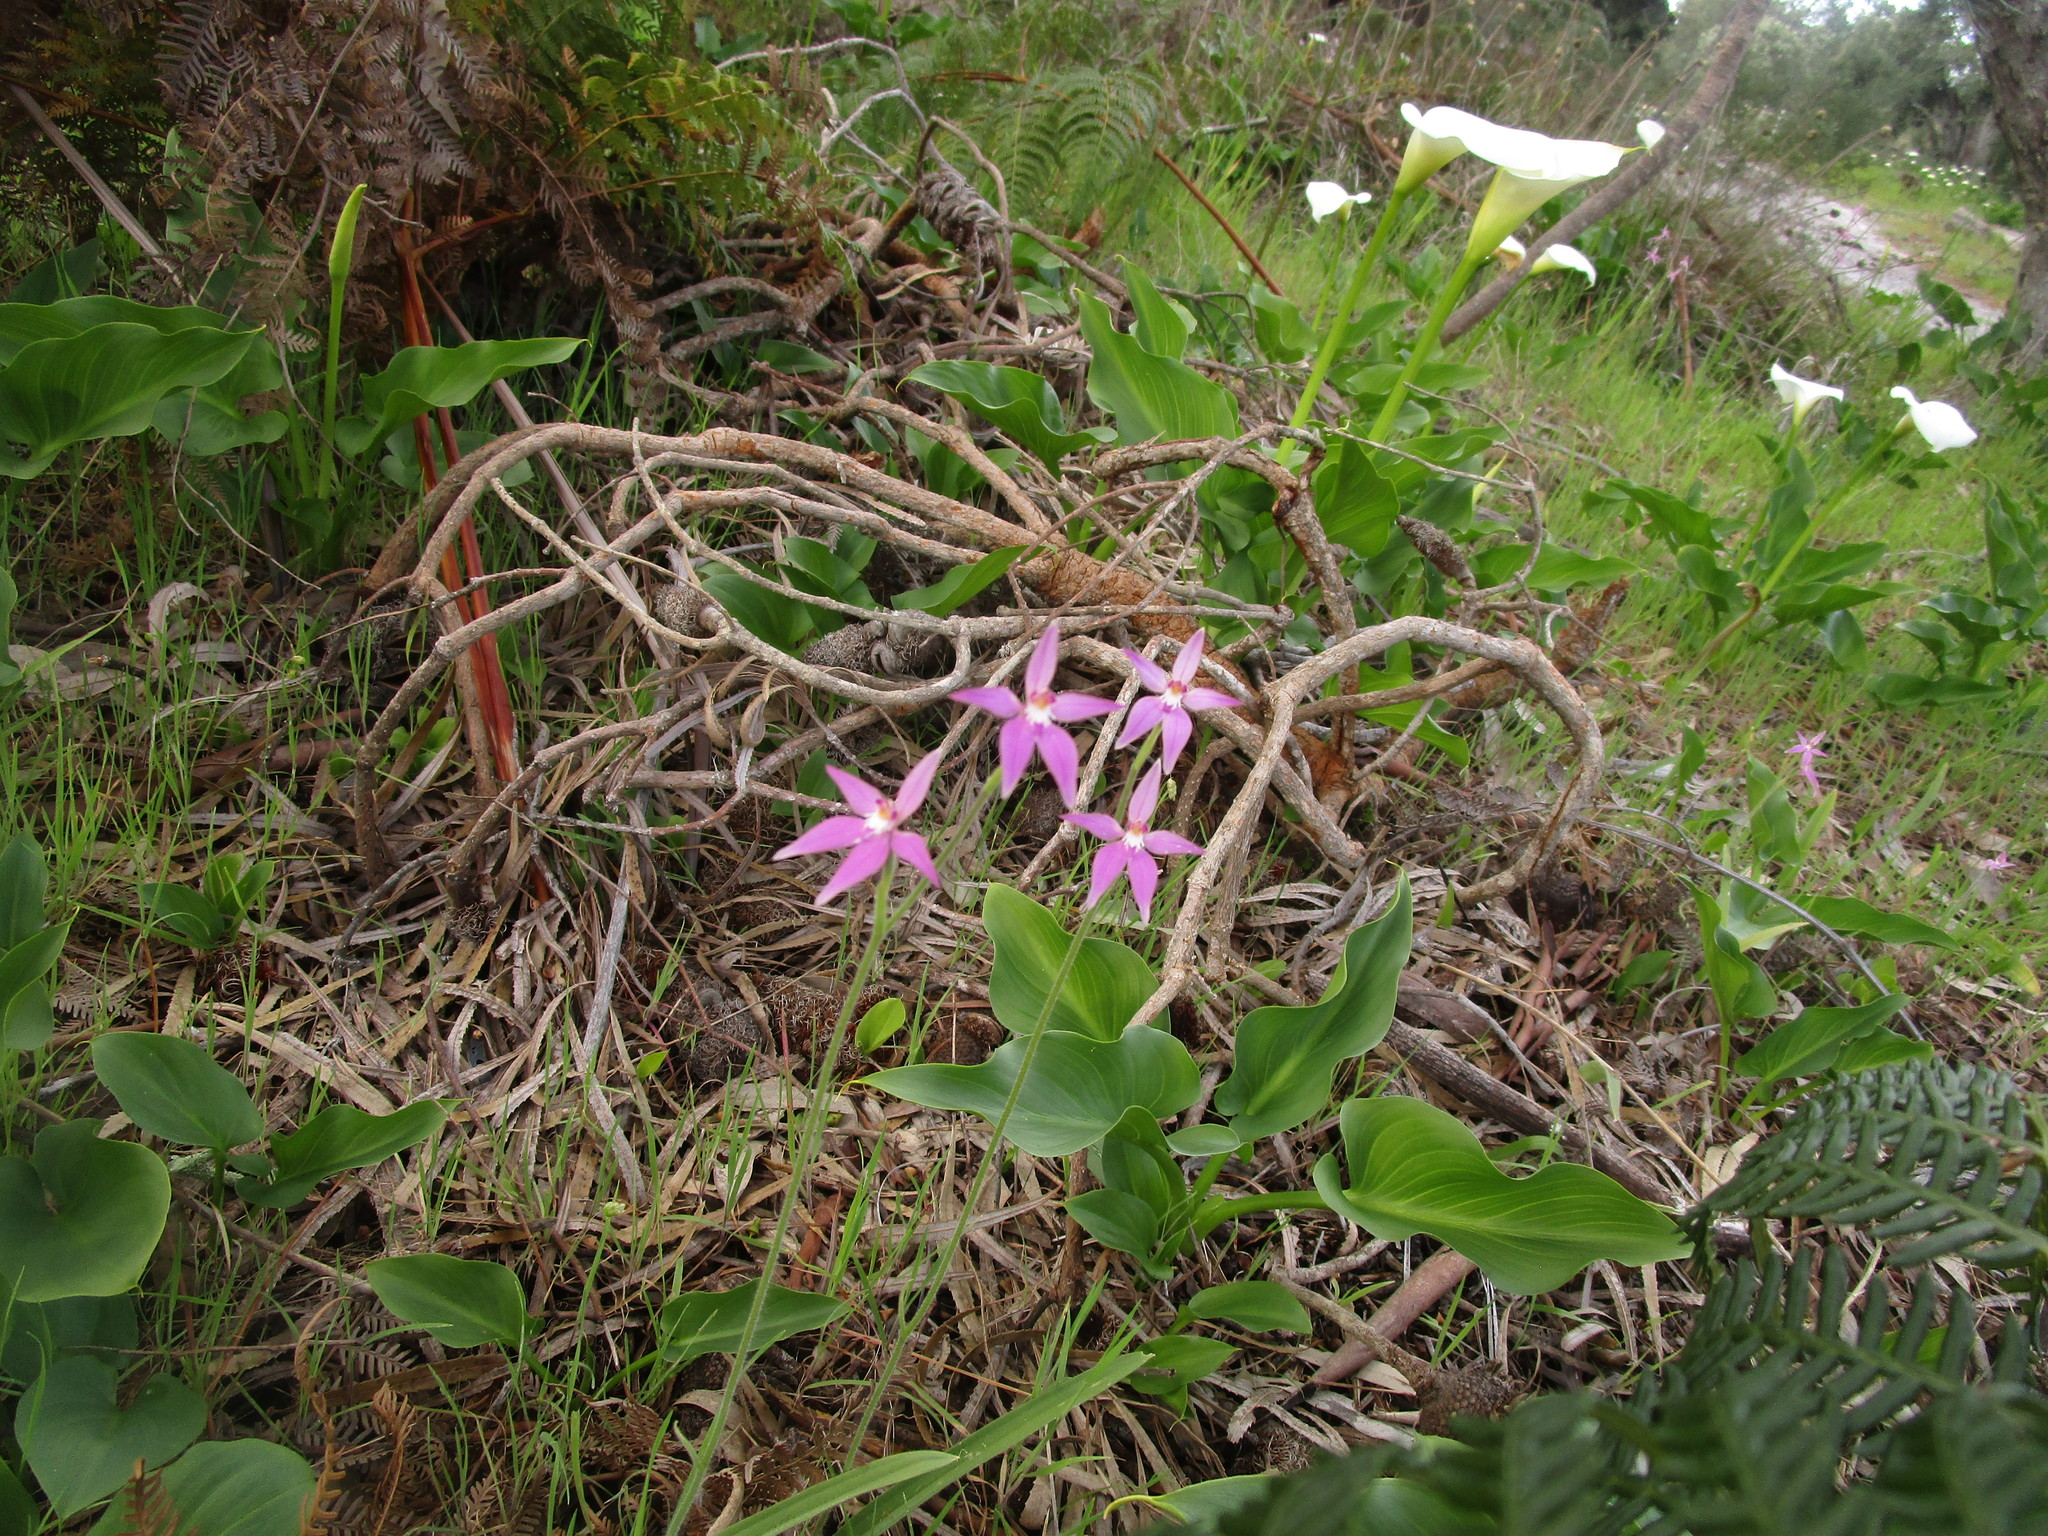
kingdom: Plantae
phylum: Tracheophyta
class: Liliopsida
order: Asparagales
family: Orchidaceae
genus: Caladenia
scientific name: Caladenia latifolia
